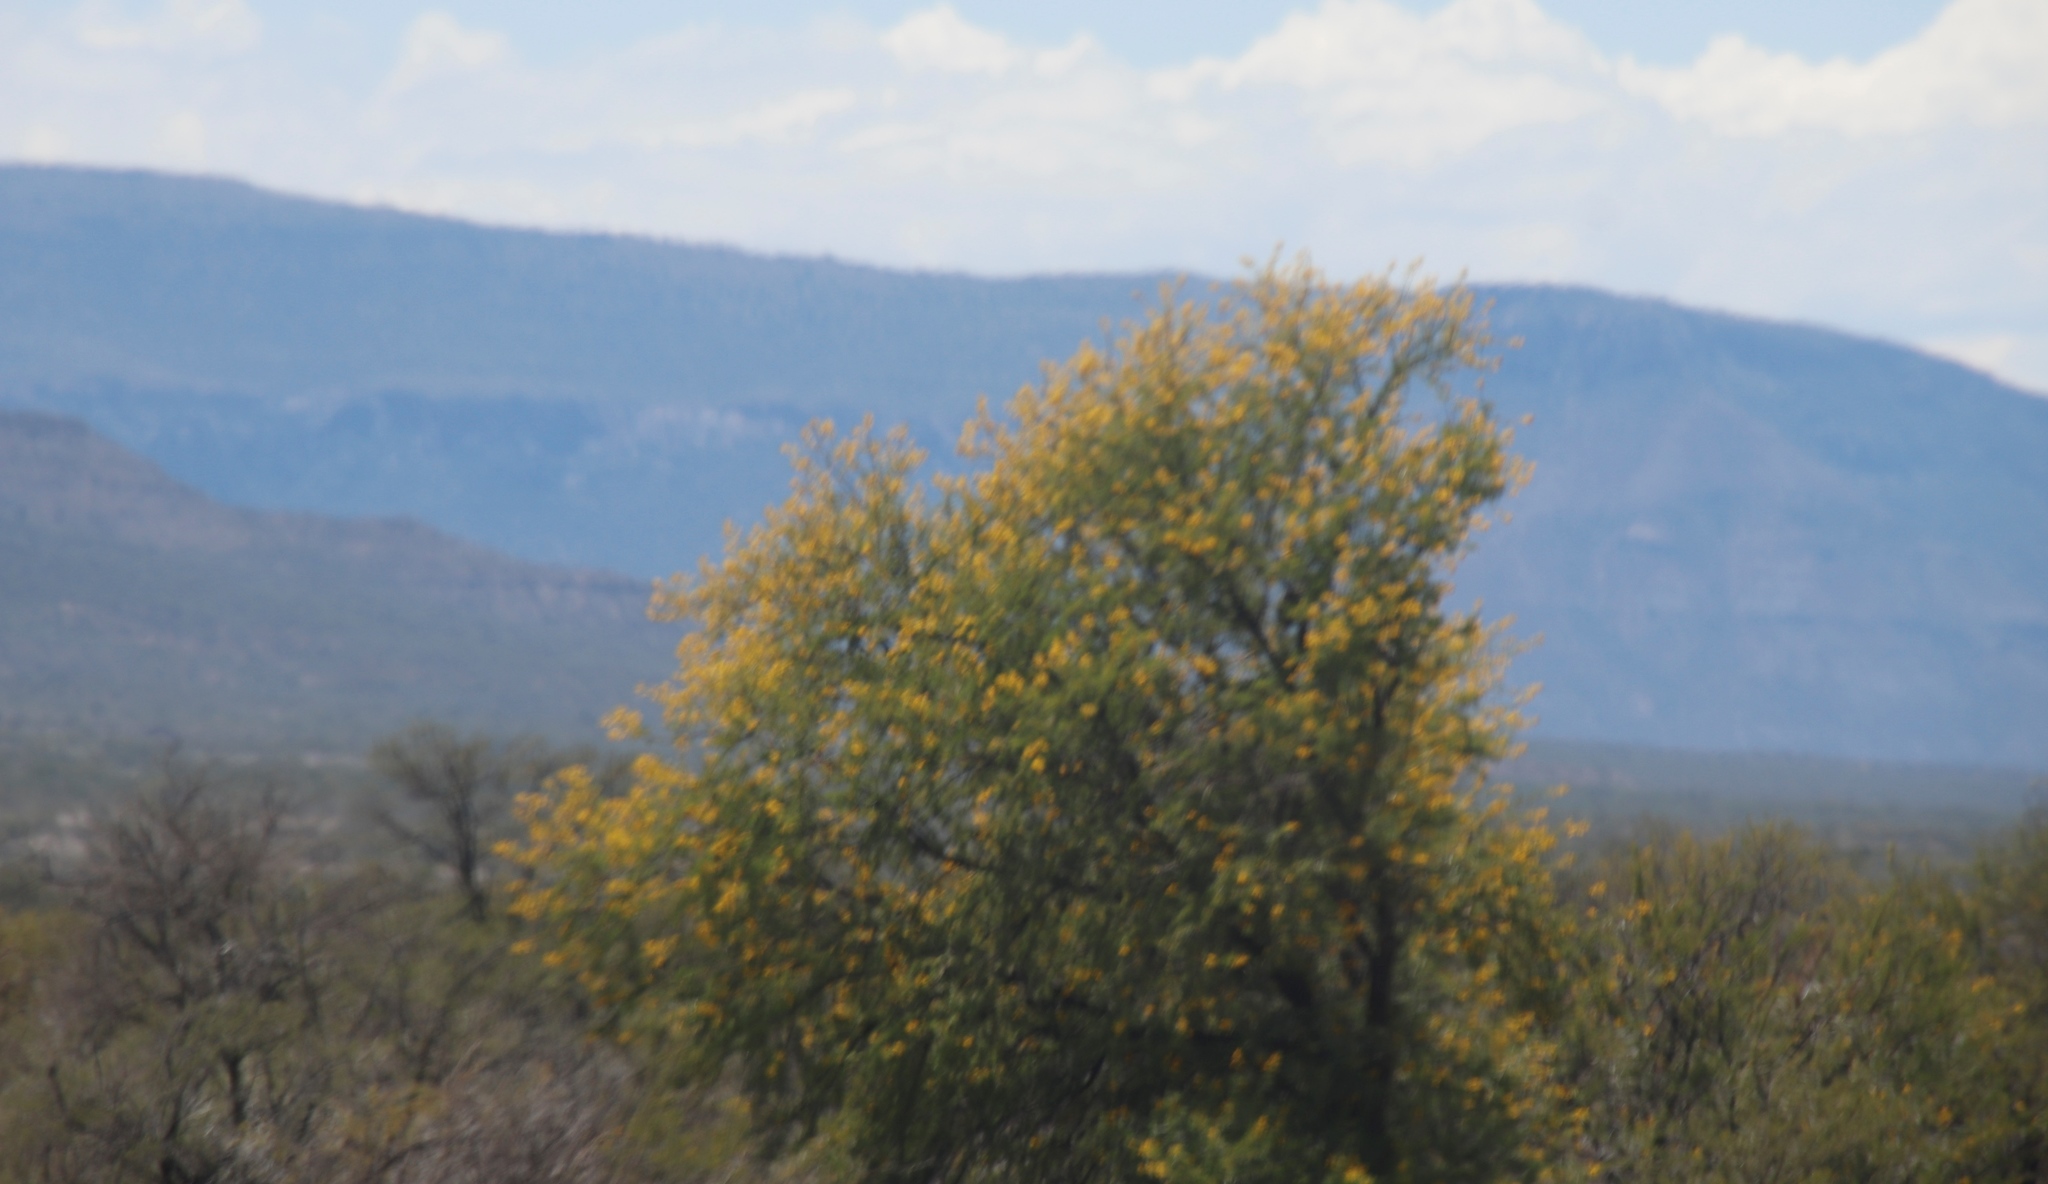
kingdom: Plantae
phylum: Tracheophyta
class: Magnoliopsida
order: Fabales
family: Fabaceae
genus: Vachellia
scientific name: Vachellia karroo
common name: Sweet thorn
